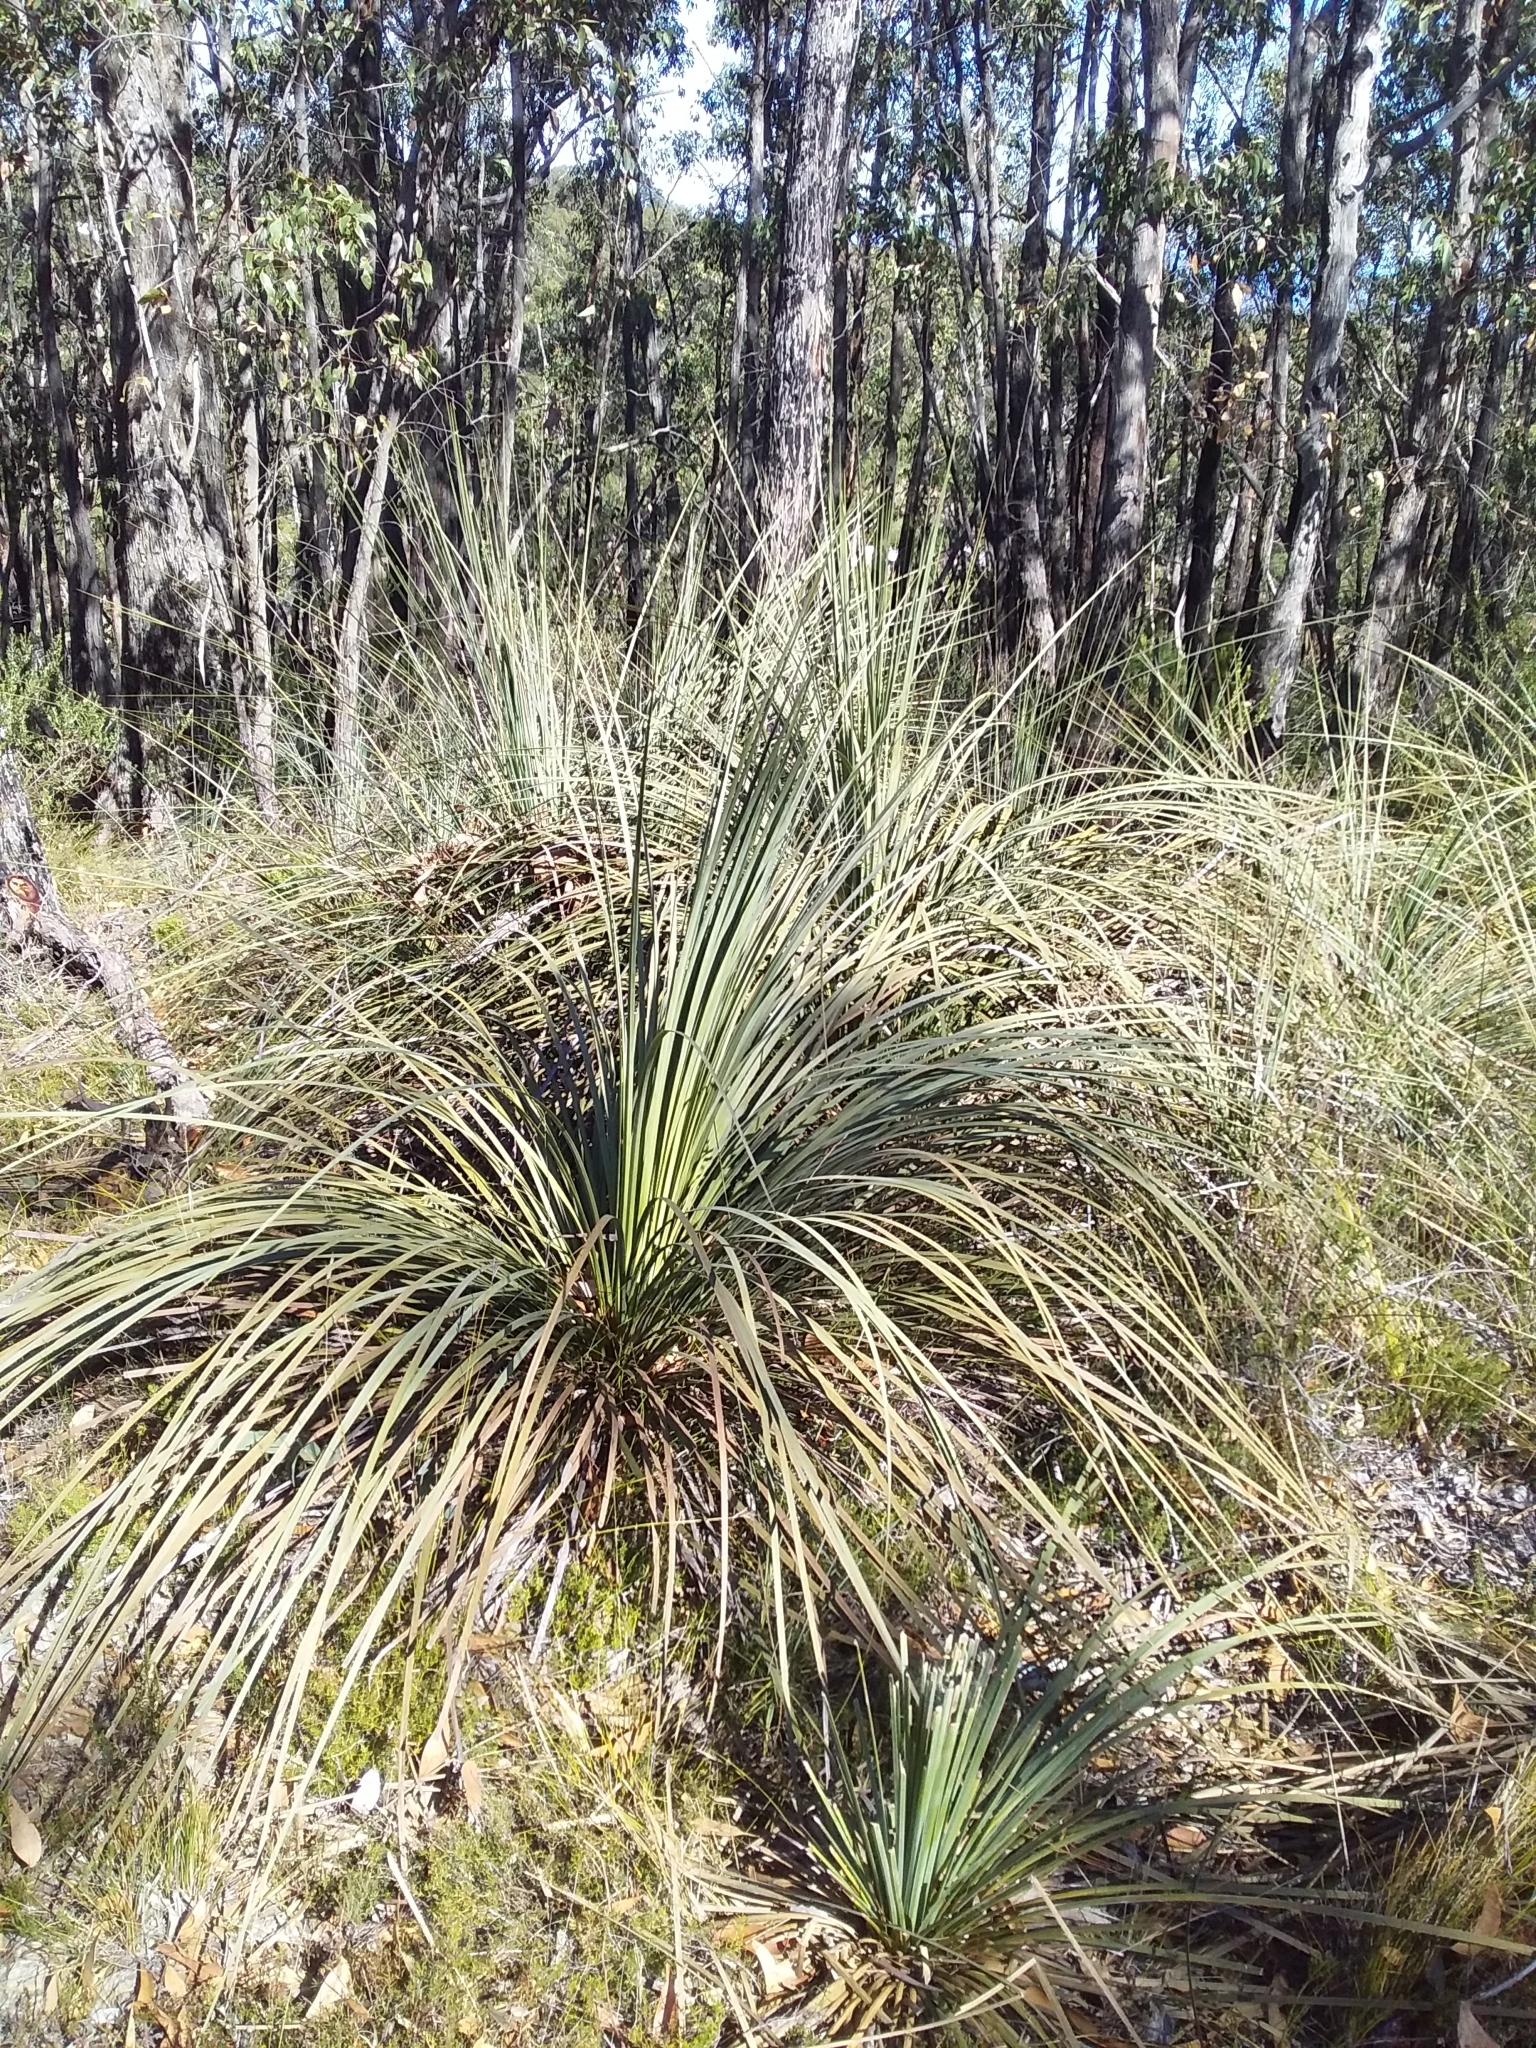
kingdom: Plantae
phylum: Tracheophyta
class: Liliopsida
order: Asparagales
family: Asphodelaceae
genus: Xanthorrhoea
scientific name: Xanthorrhoea semiplana
